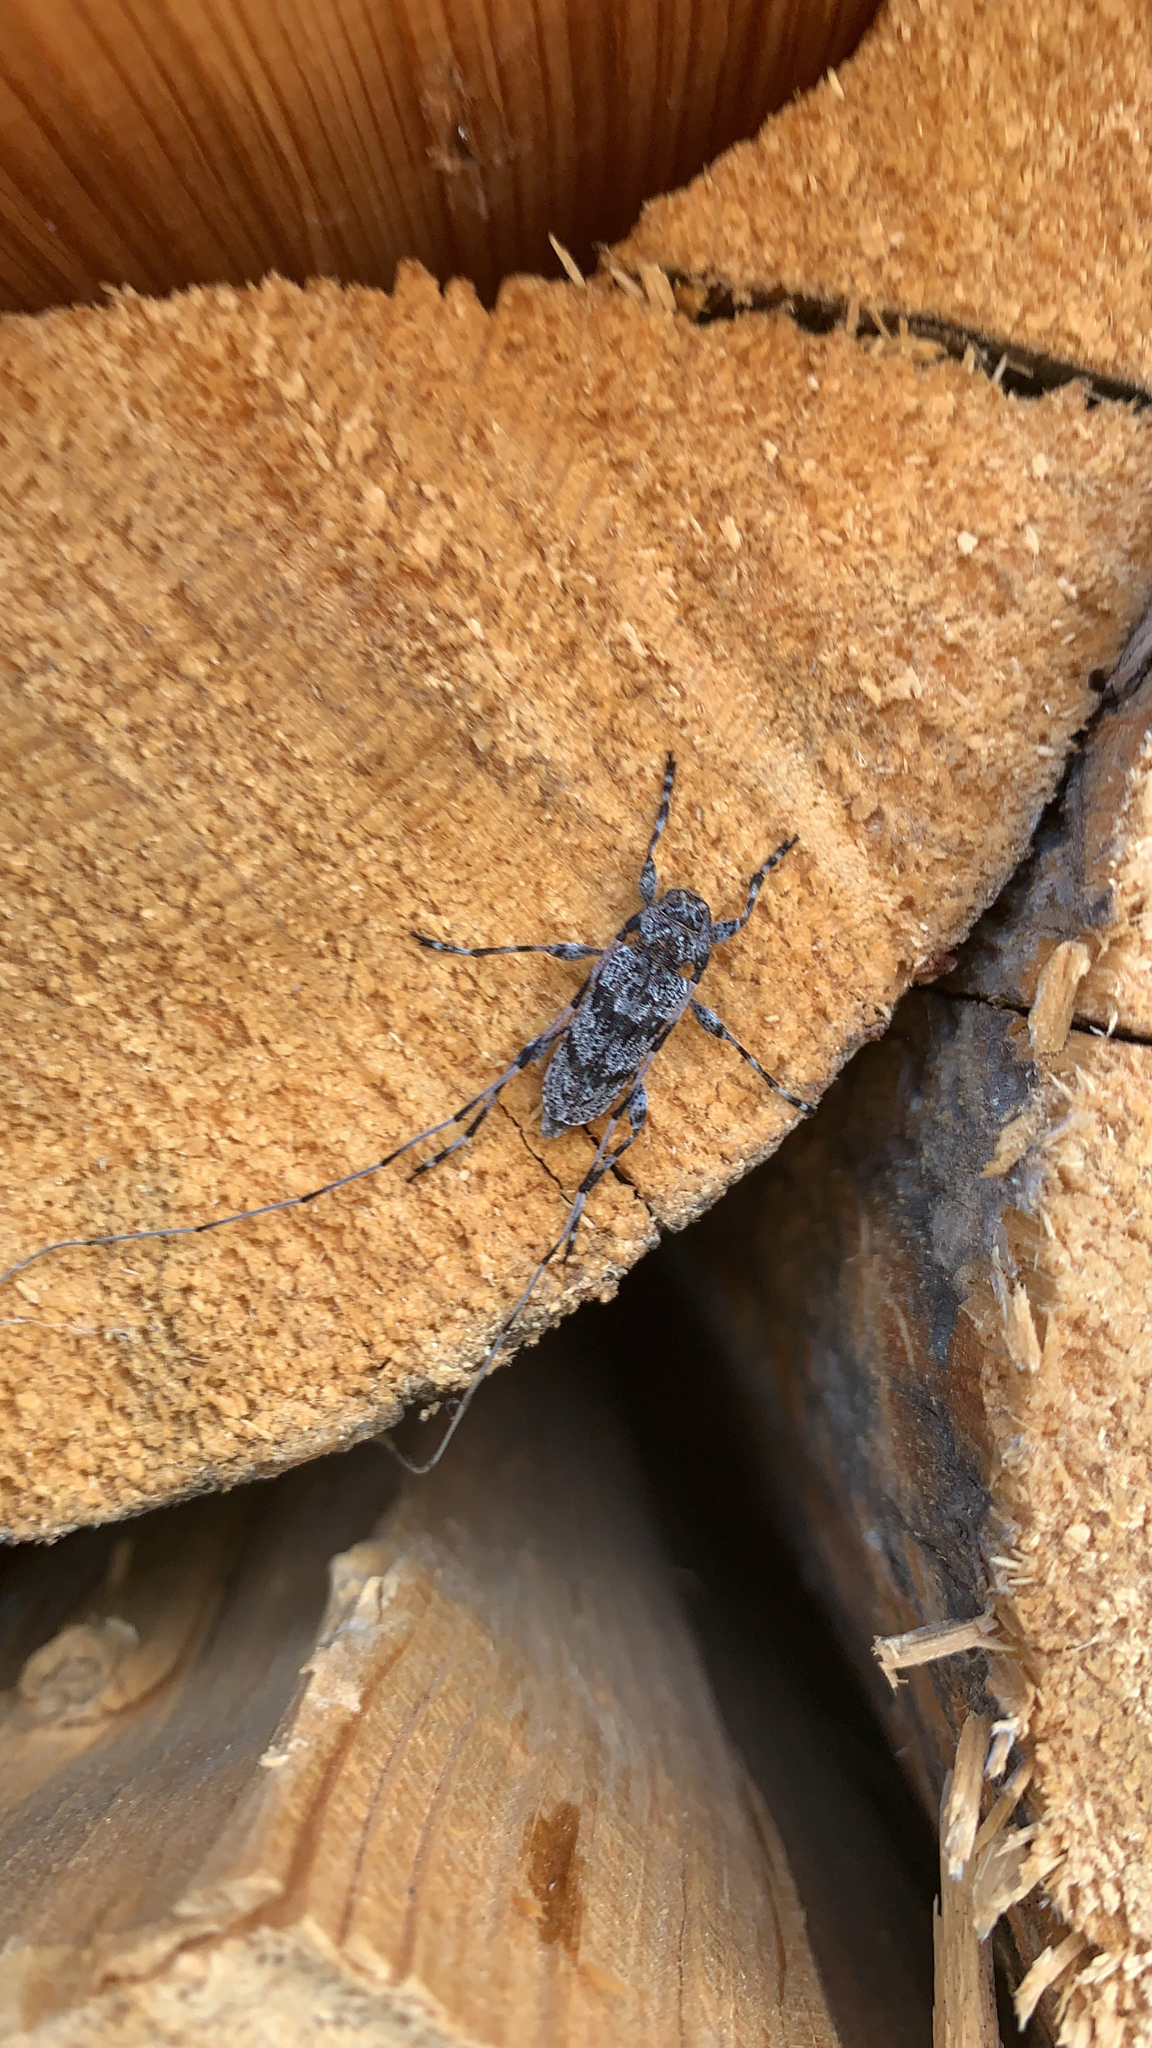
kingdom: Animalia
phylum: Arthropoda
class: Insecta
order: Coleoptera
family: Cerambycidae
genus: Acanthocinus
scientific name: Acanthocinus obliquus
